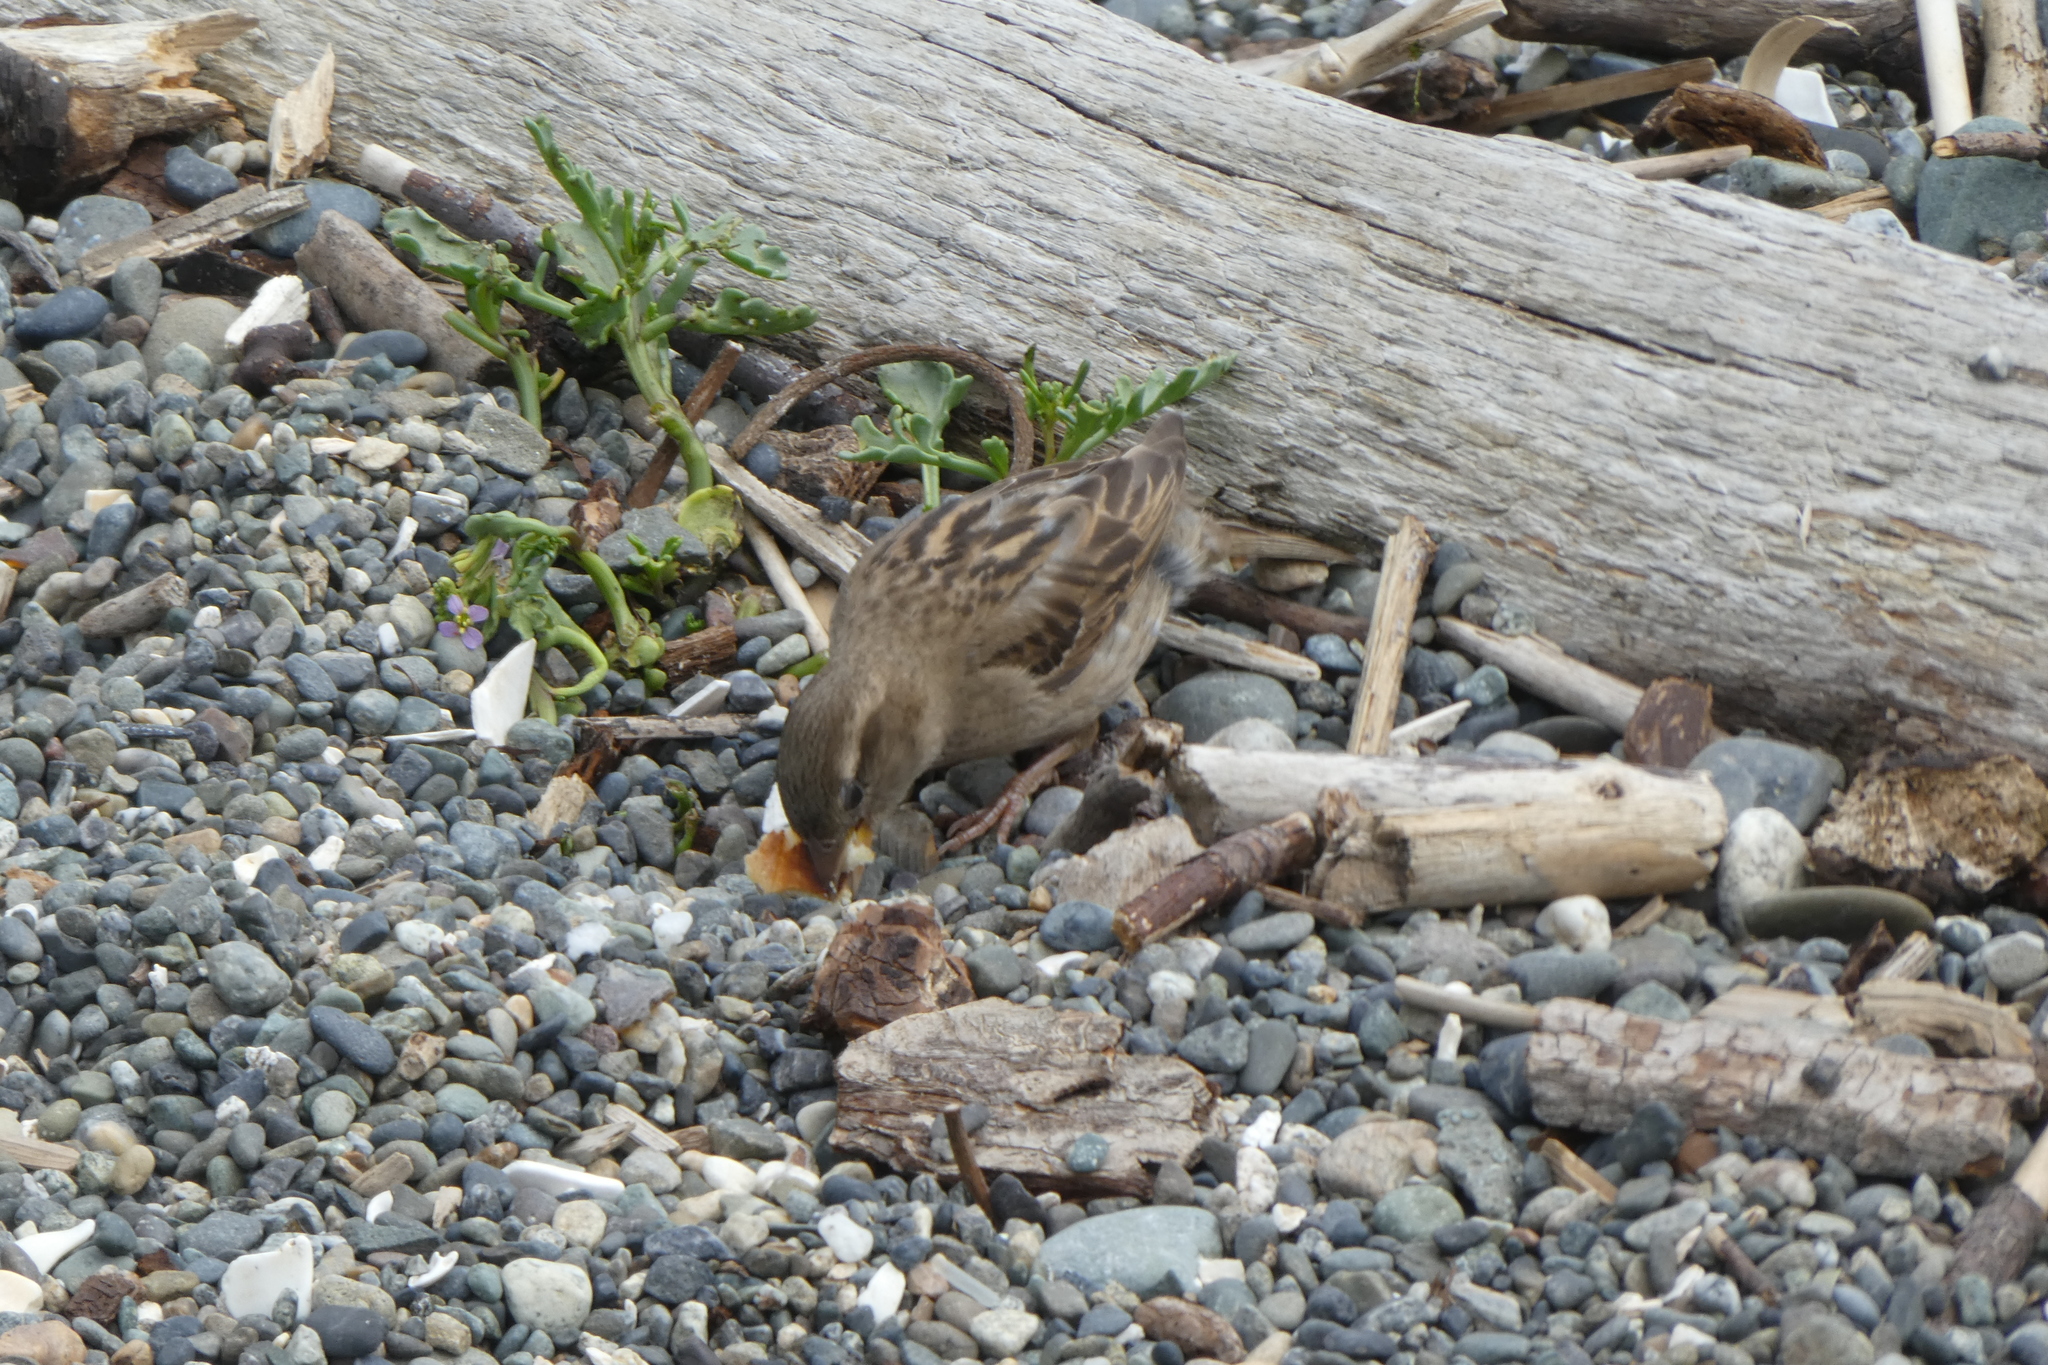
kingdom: Animalia
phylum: Chordata
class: Aves
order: Passeriformes
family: Passeridae
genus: Passer
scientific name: Passer domesticus
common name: House sparrow
